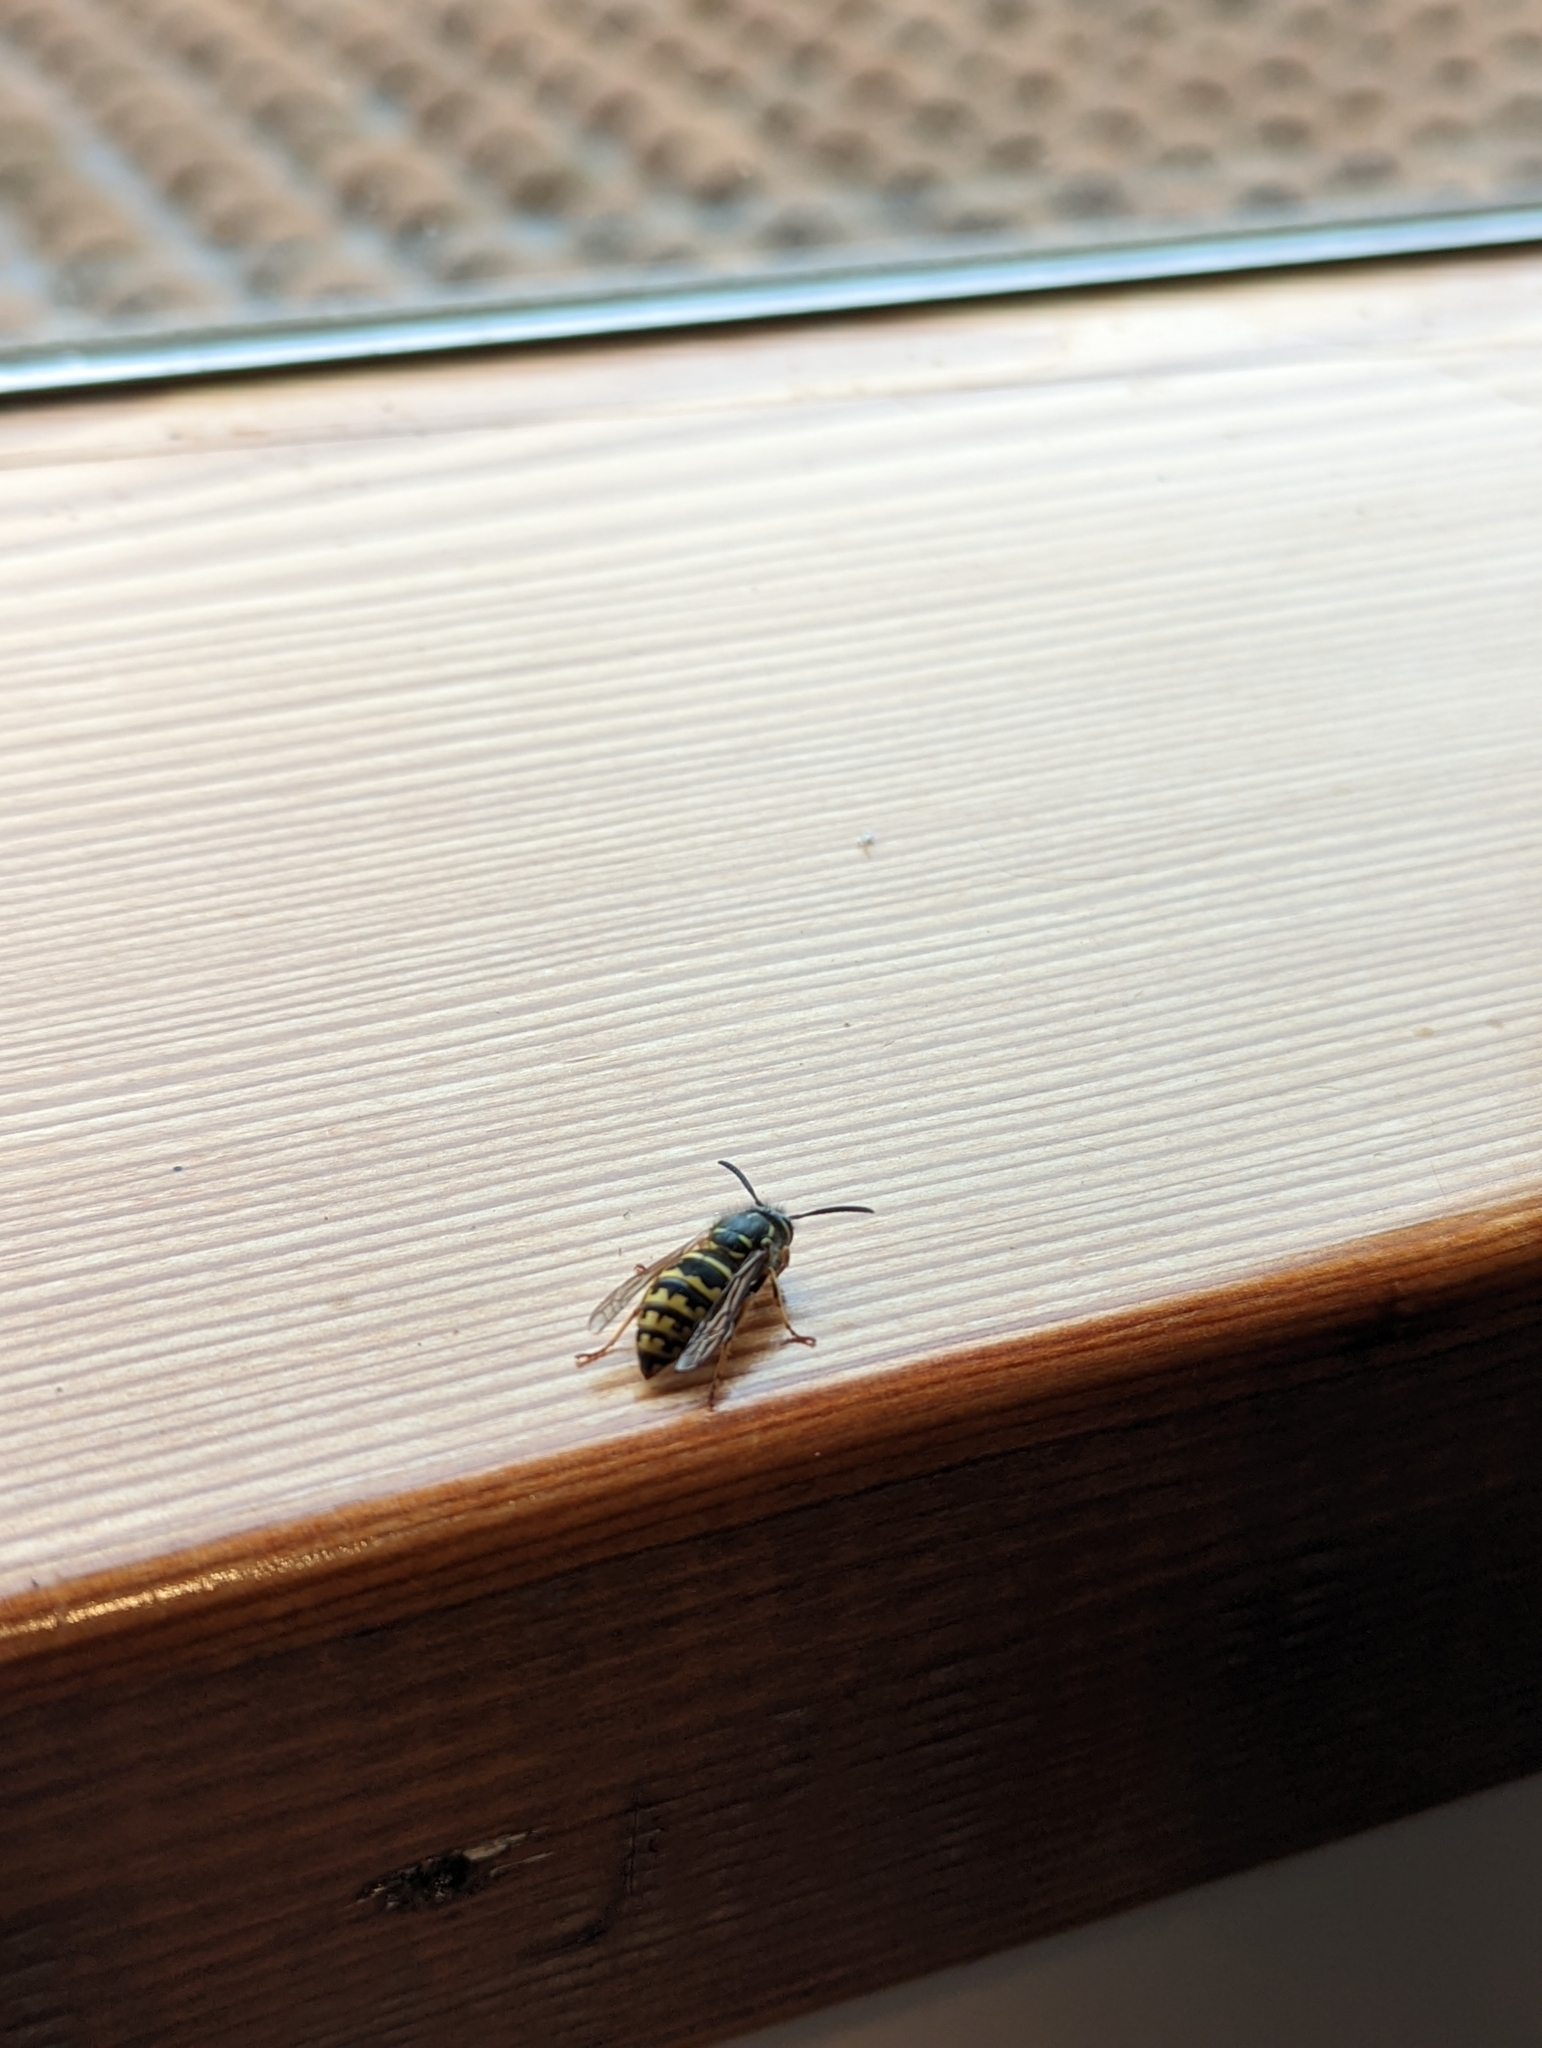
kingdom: Animalia
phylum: Arthropoda
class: Insecta
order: Hymenoptera
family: Vespidae
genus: Vespula
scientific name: Vespula alascensis
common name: Alaska yellowjacket
